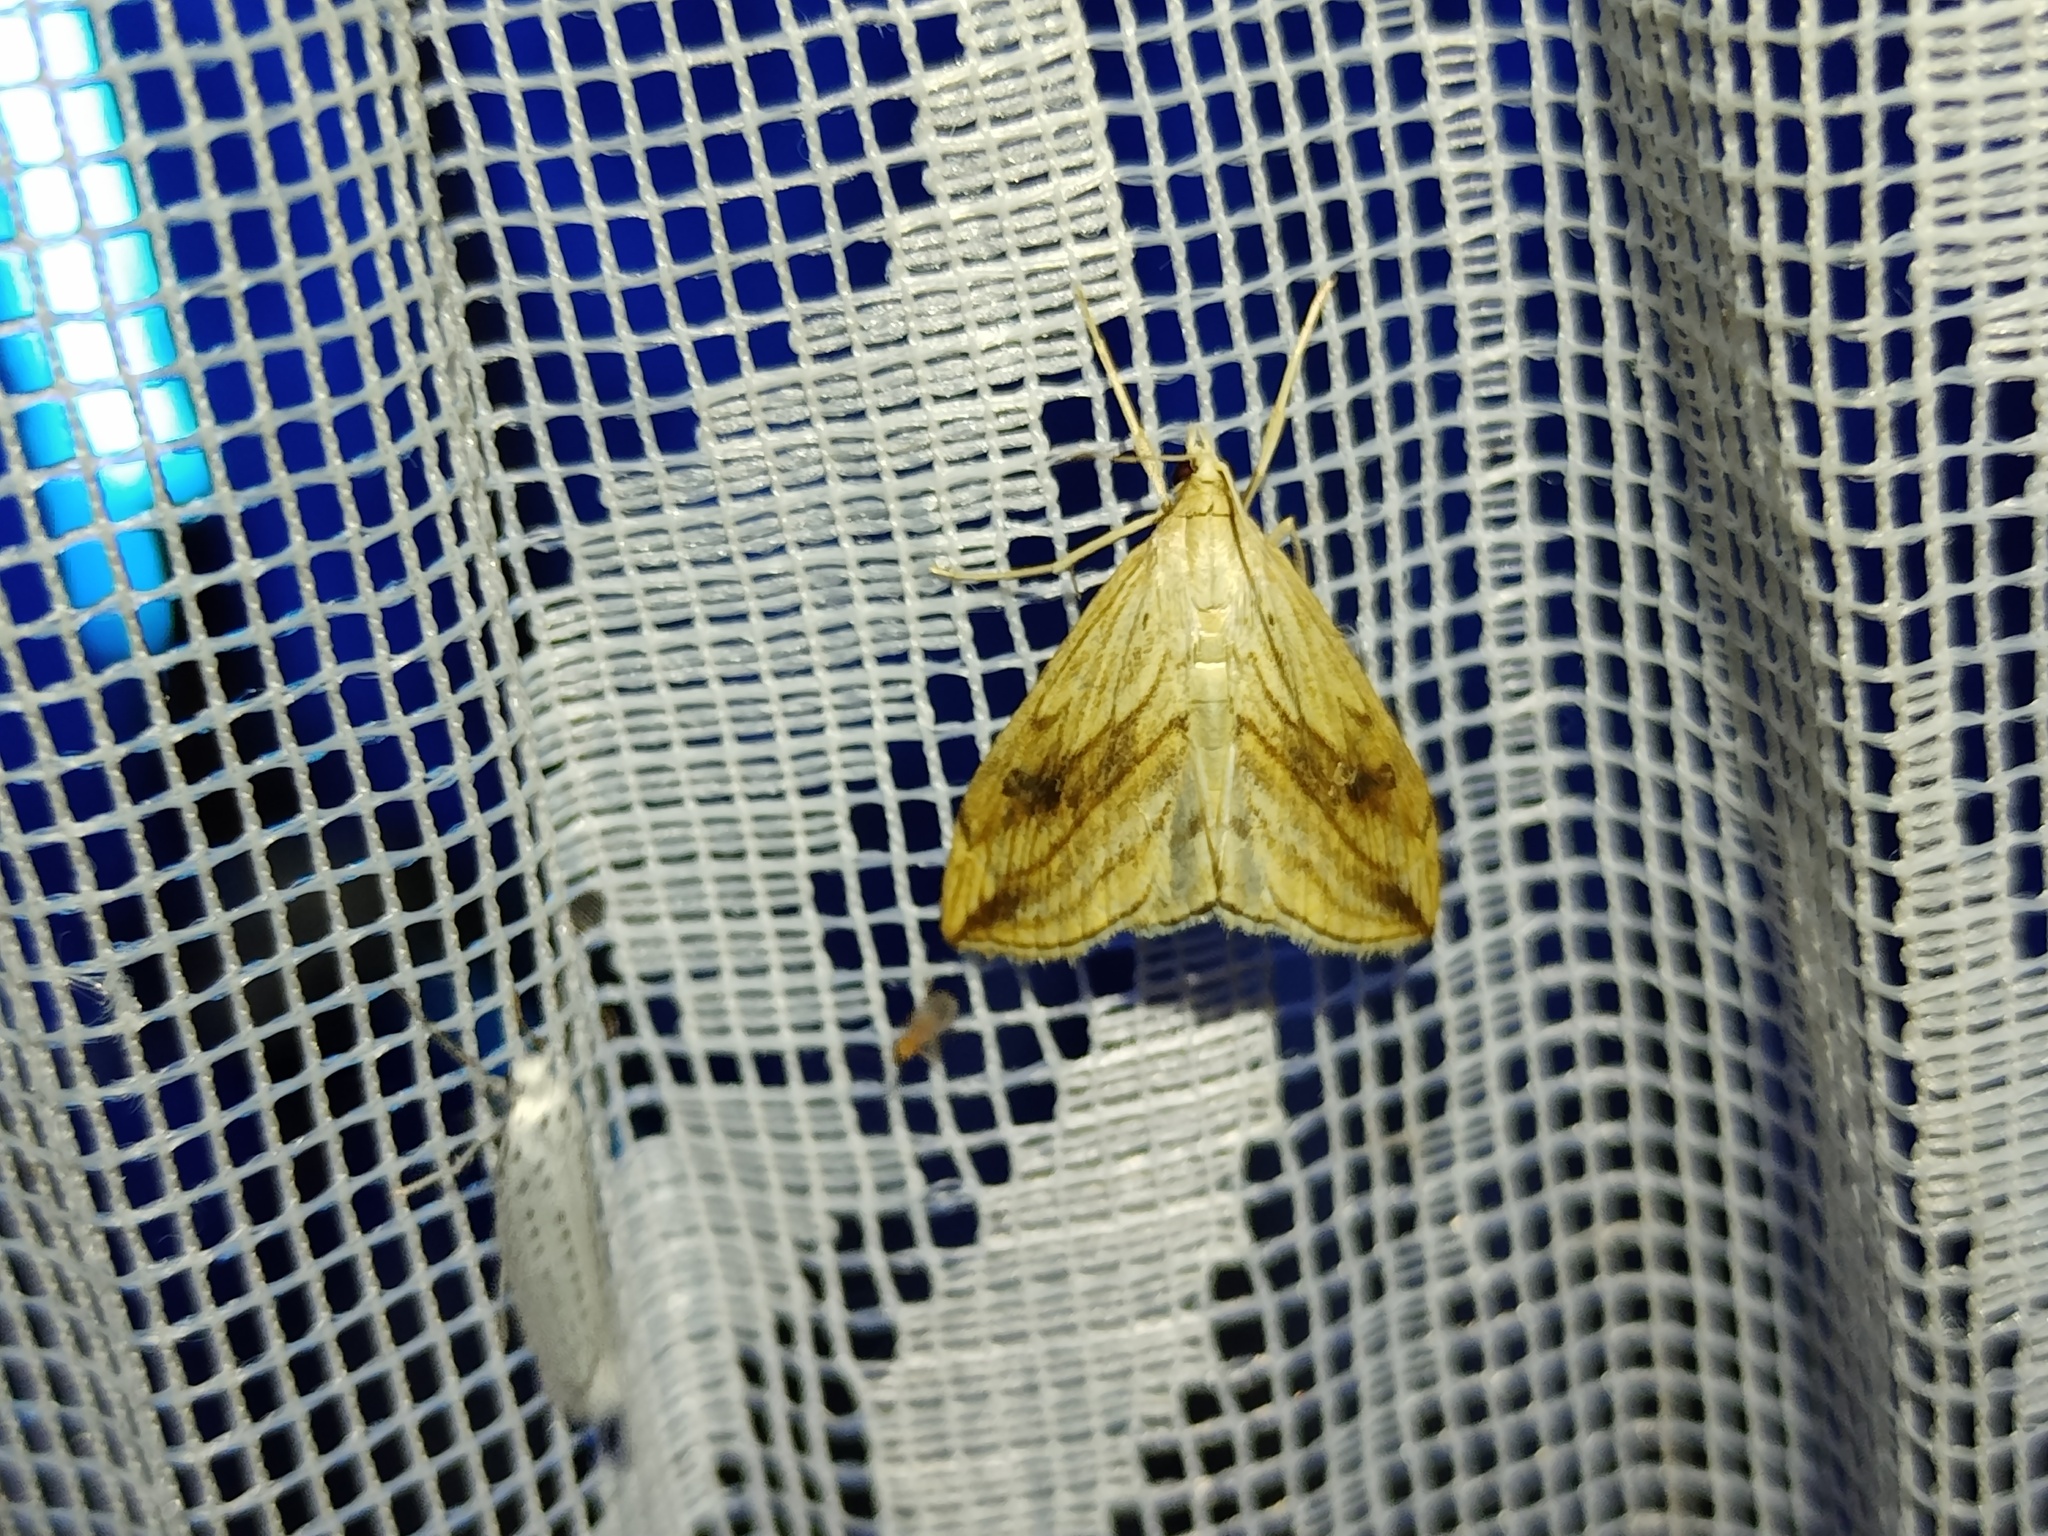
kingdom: Animalia
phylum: Arthropoda
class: Insecta
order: Lepidoptera
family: Crambidae
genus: Evergestis
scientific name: Evergestis forficalis
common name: Garden pebble
